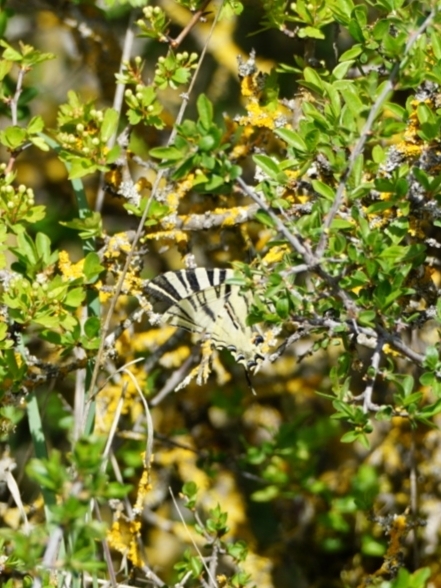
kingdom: Animalia
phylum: Arthropoda
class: Insecta
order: Lepidoptera
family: Papilionidae
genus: Iphiclides
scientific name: Iphiclides feisthamelii
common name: Iberian scarce swallowtail
